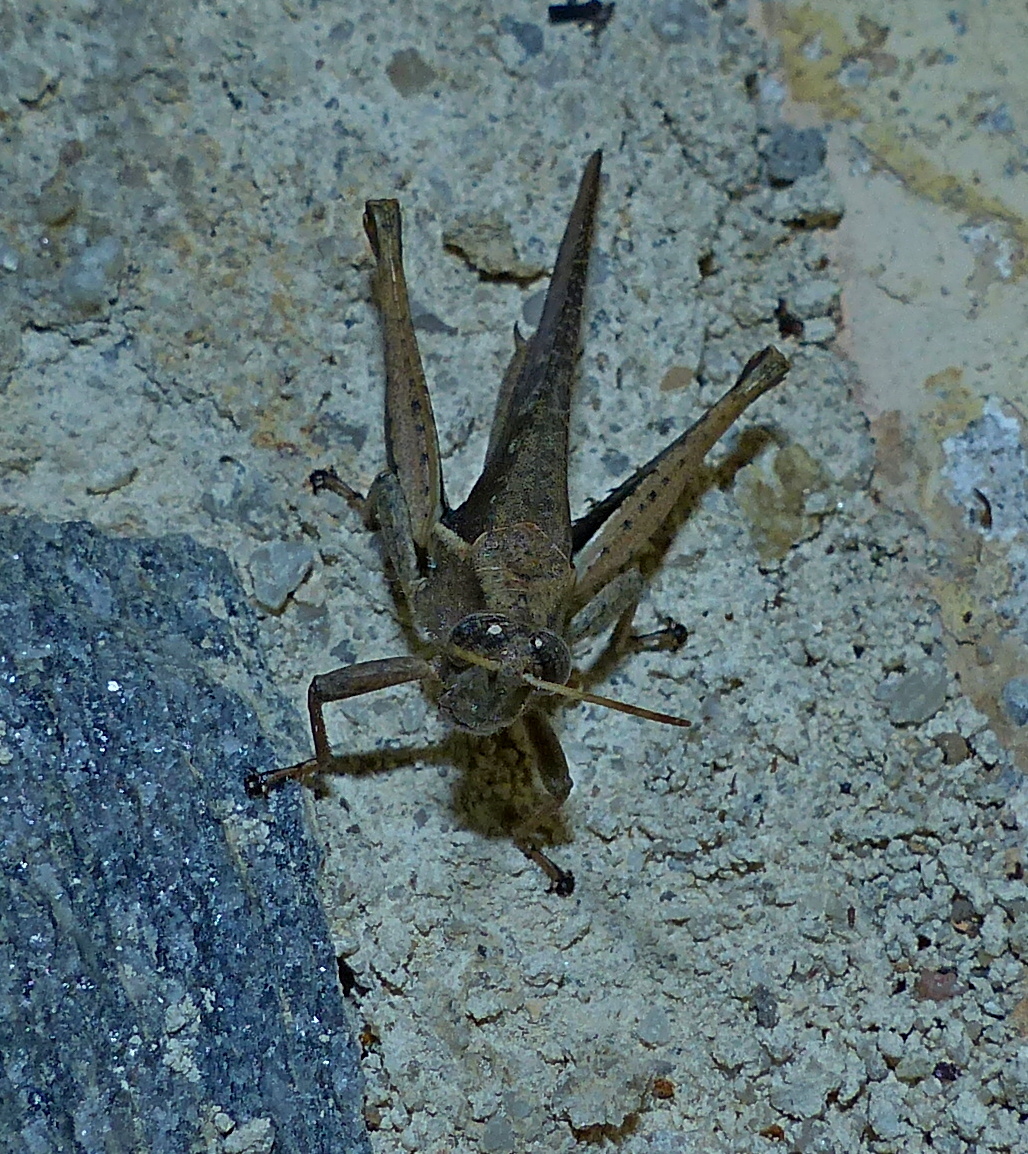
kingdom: Animalia
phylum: Arthropoda
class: Insecta
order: Orthoptera
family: Acrididae
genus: Abracris
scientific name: Abracris flavolineata
